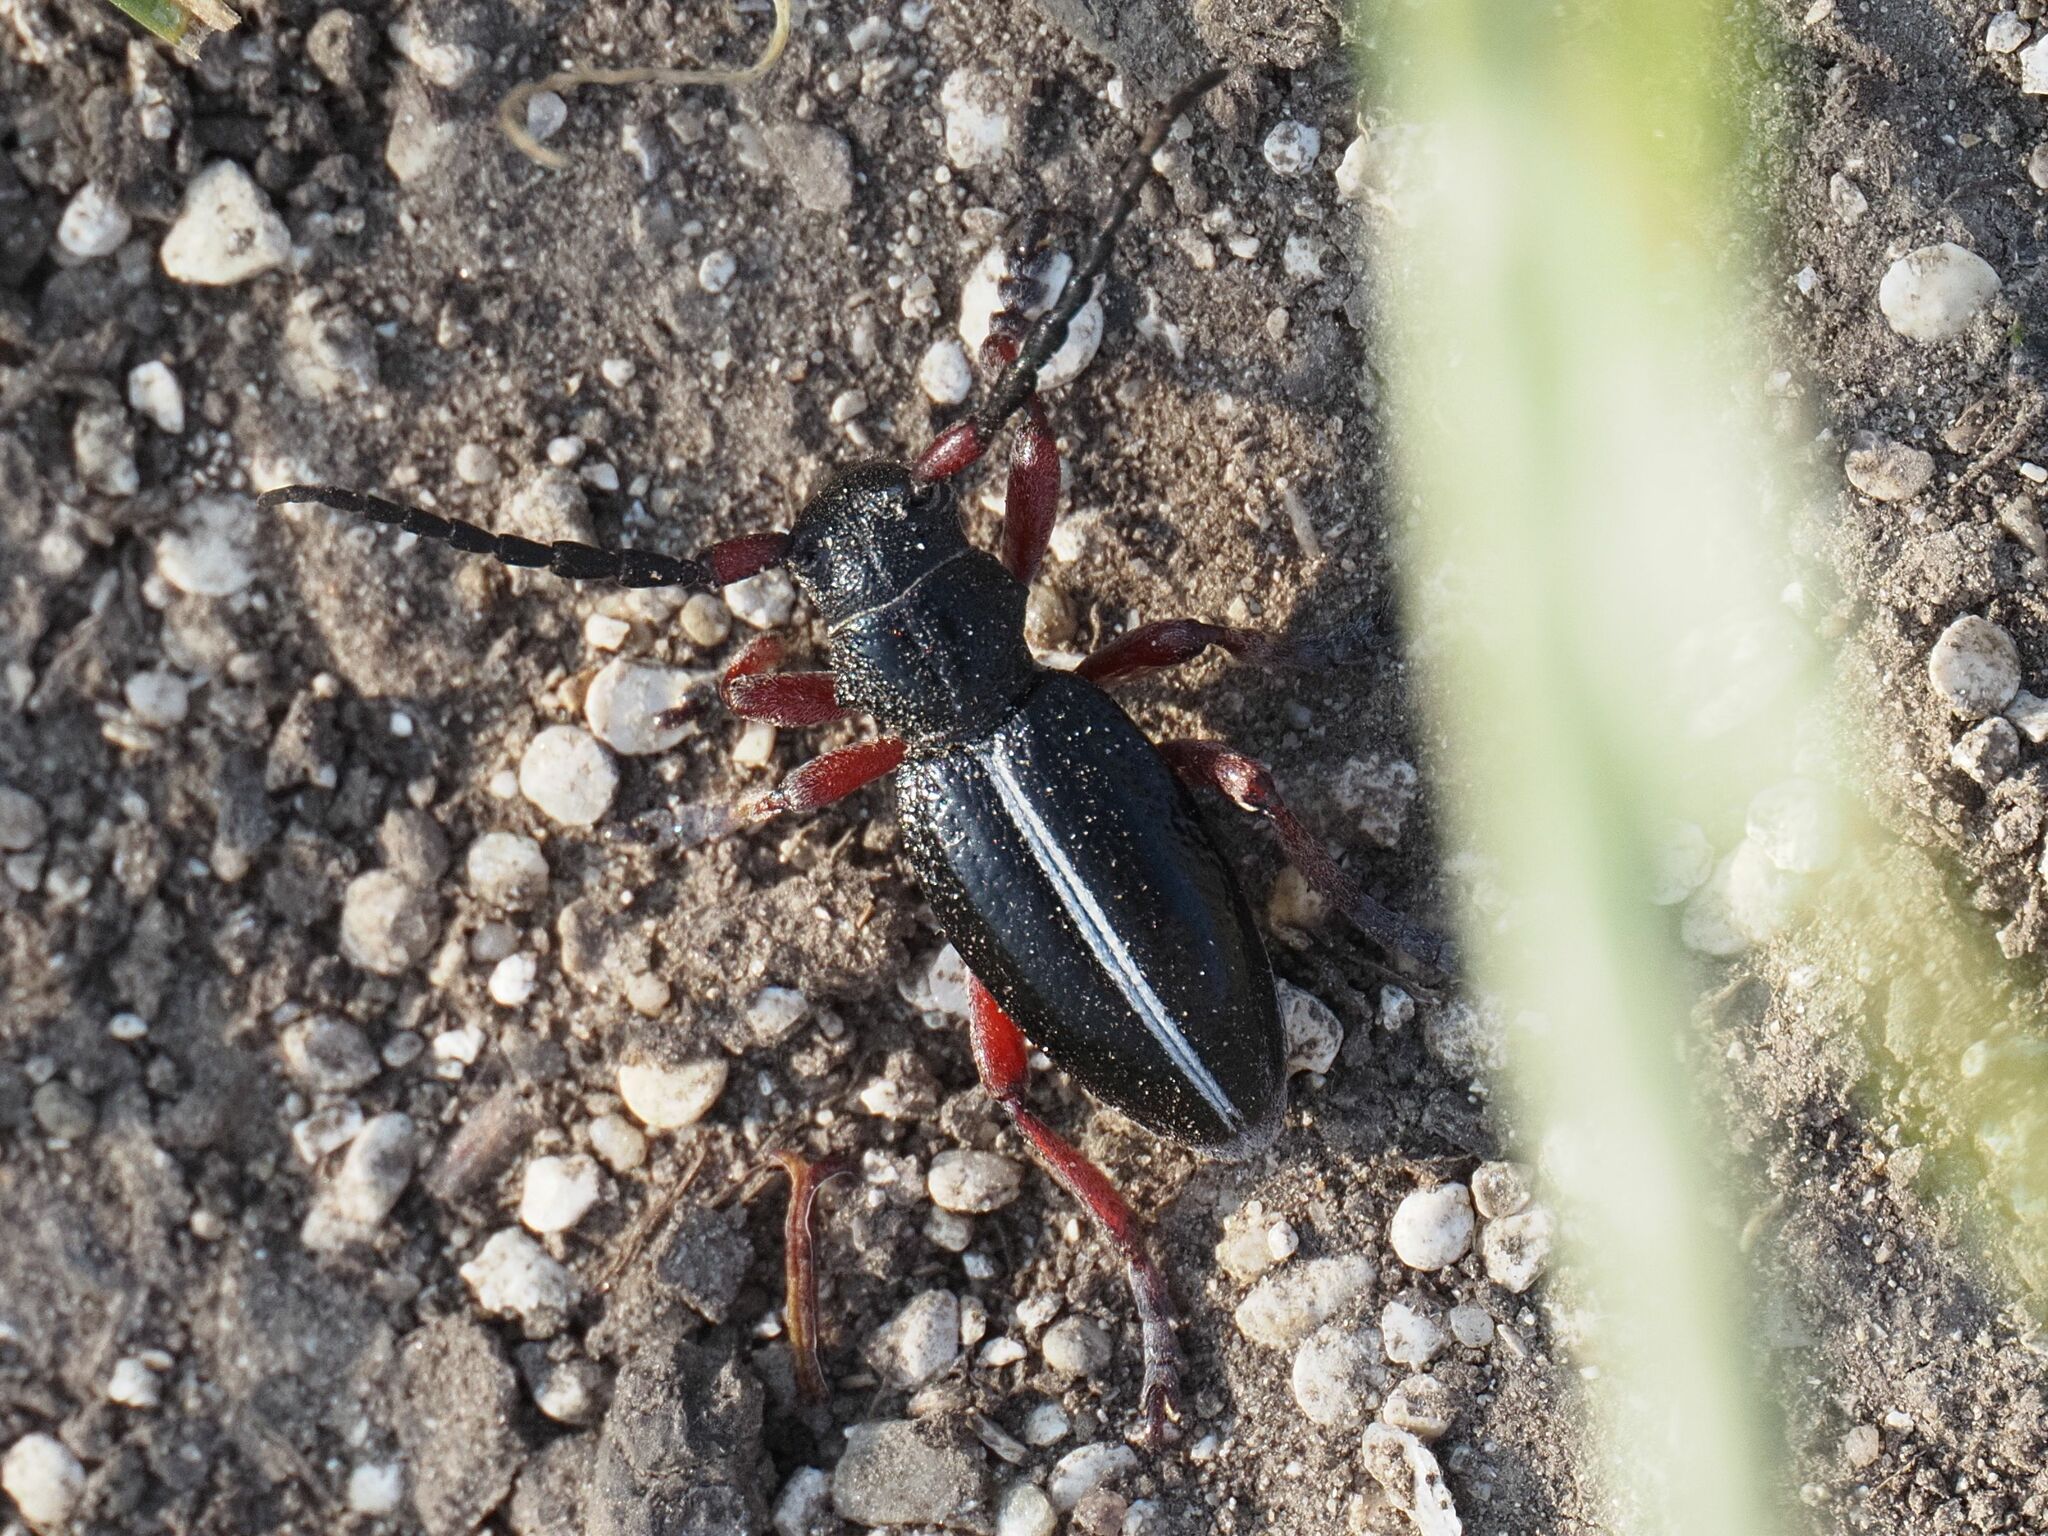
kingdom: Animalia
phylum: Arthropoda
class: Insecta
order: Coleoptera
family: Cerambycidae
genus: Dorcadion
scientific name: Dorcadion pedestre
